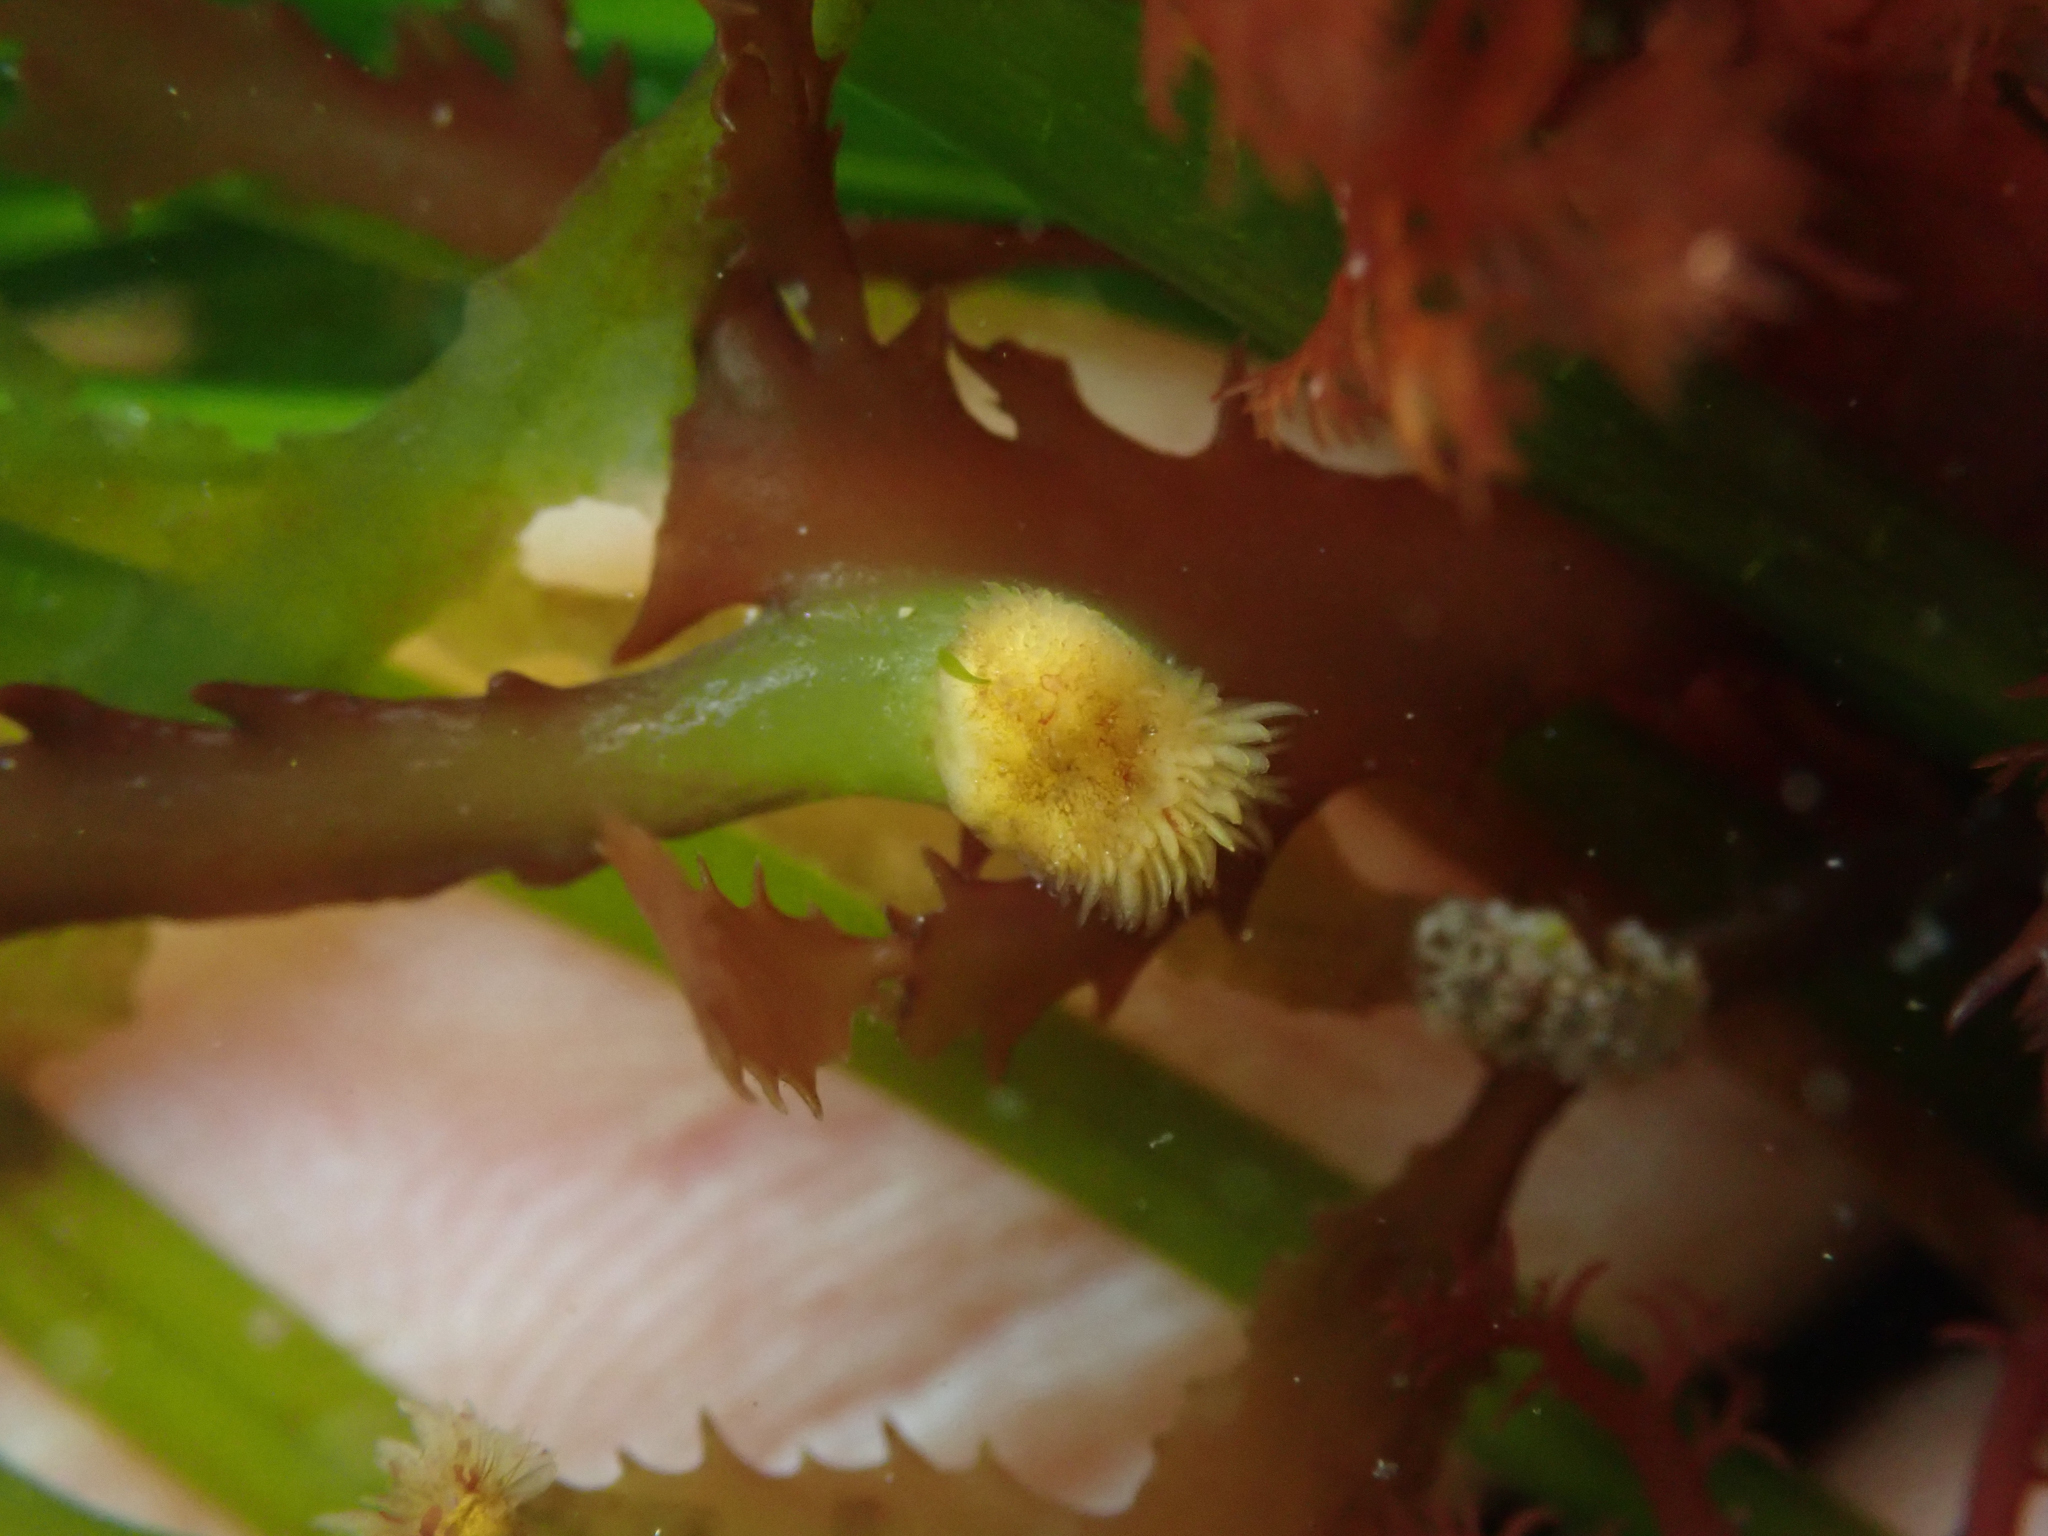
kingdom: Plantae
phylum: Rhodophyta
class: Florideophyceae
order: Ceramiales
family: Delesseriaceae
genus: Asterocolax
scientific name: Asterocolax gardneri
